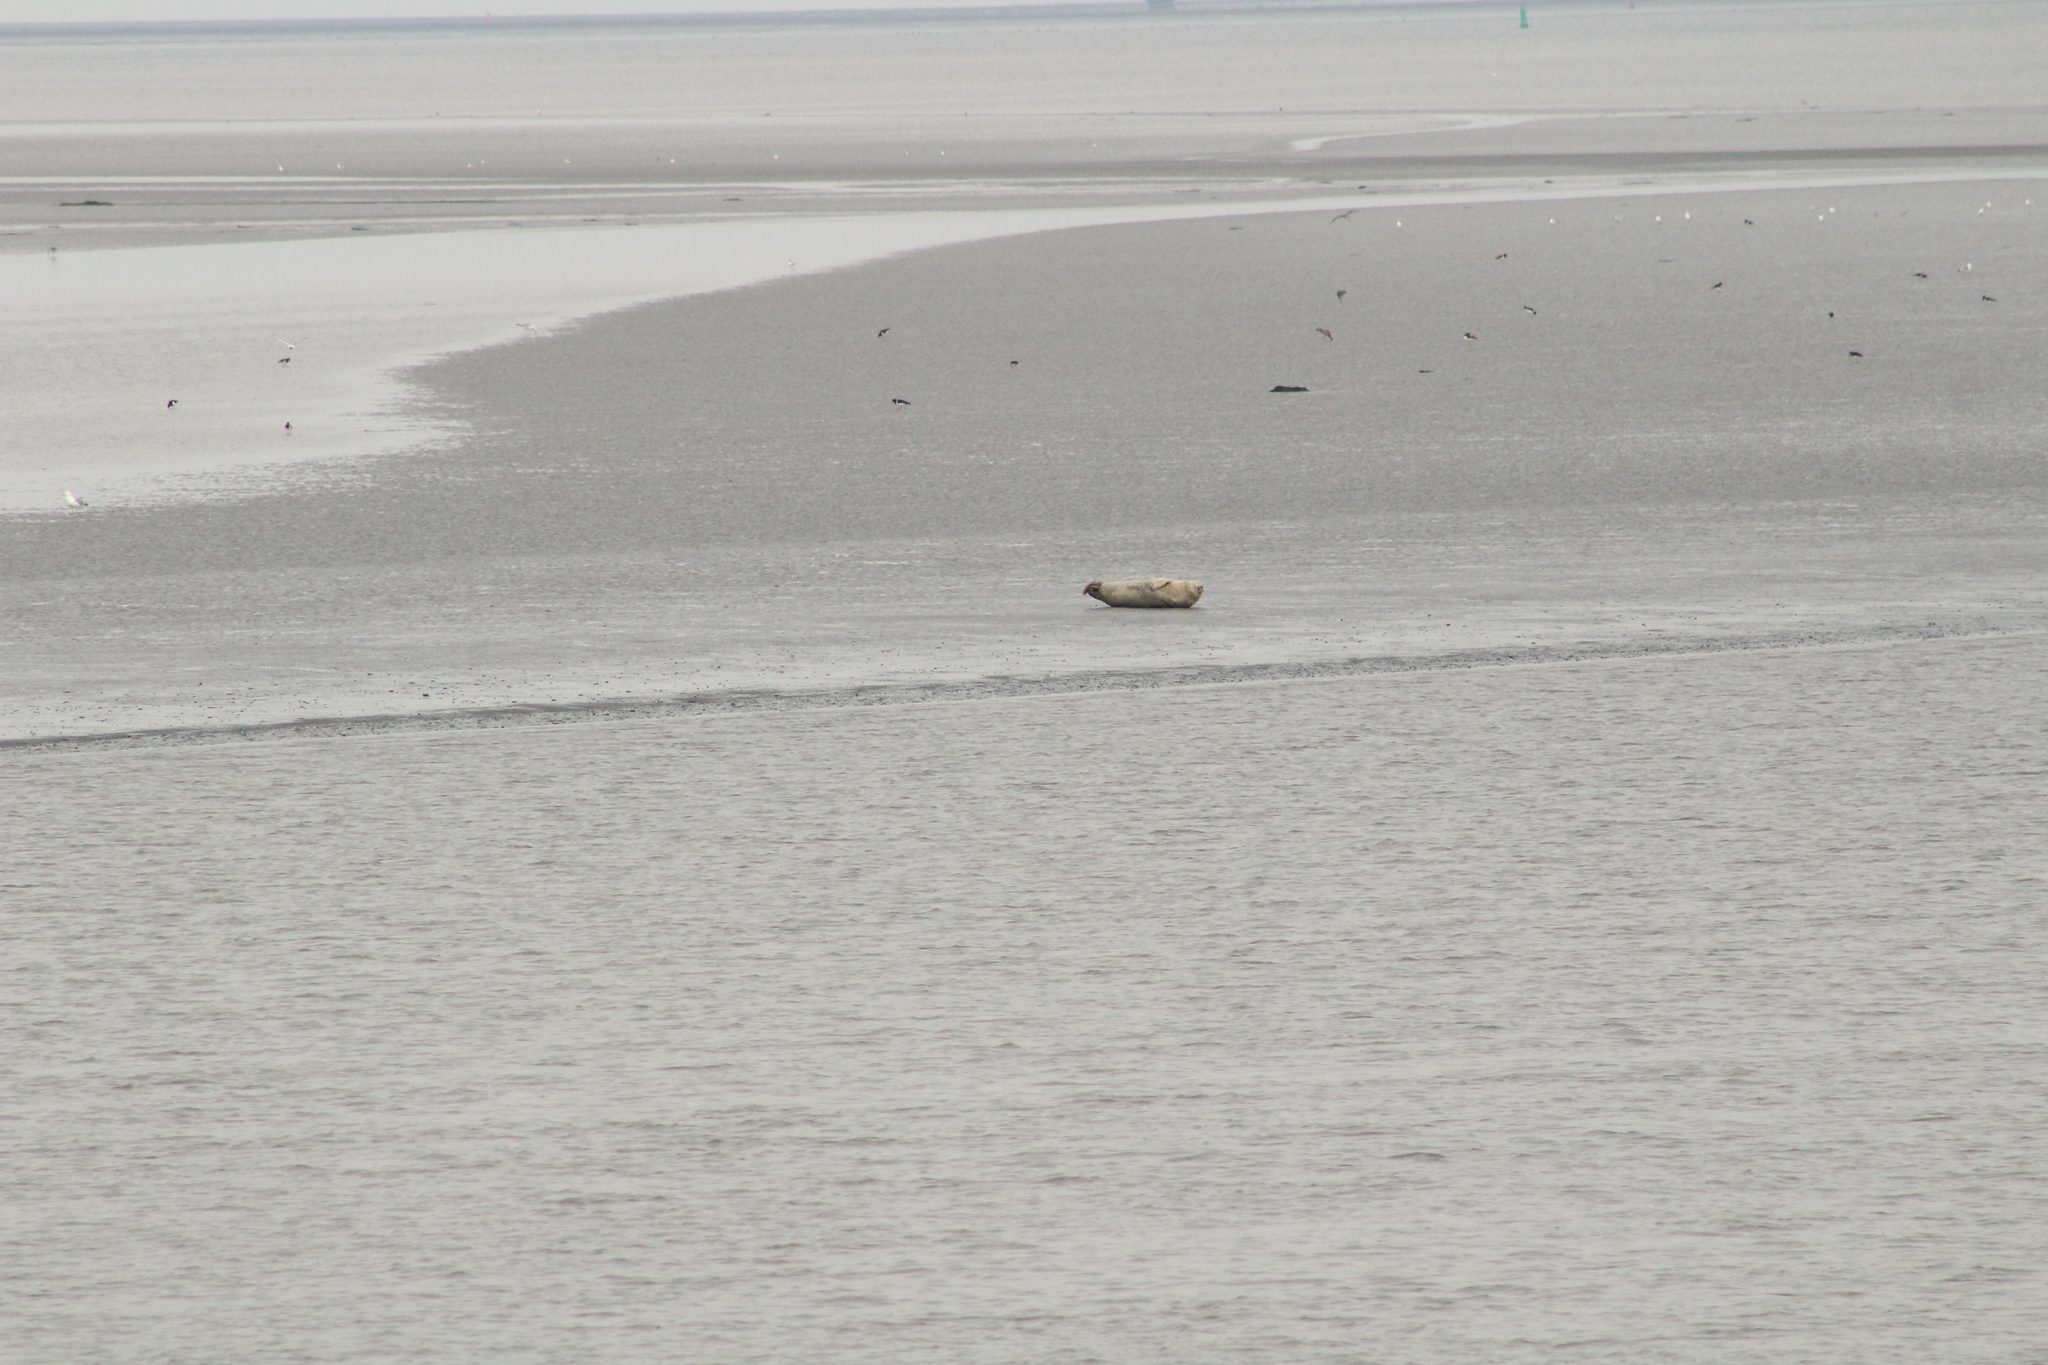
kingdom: Animalia
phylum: Chordata
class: Mammalia
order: Carnivora
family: Phocidae
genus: Phoca
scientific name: Phoca vitulina
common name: Harbor seal
